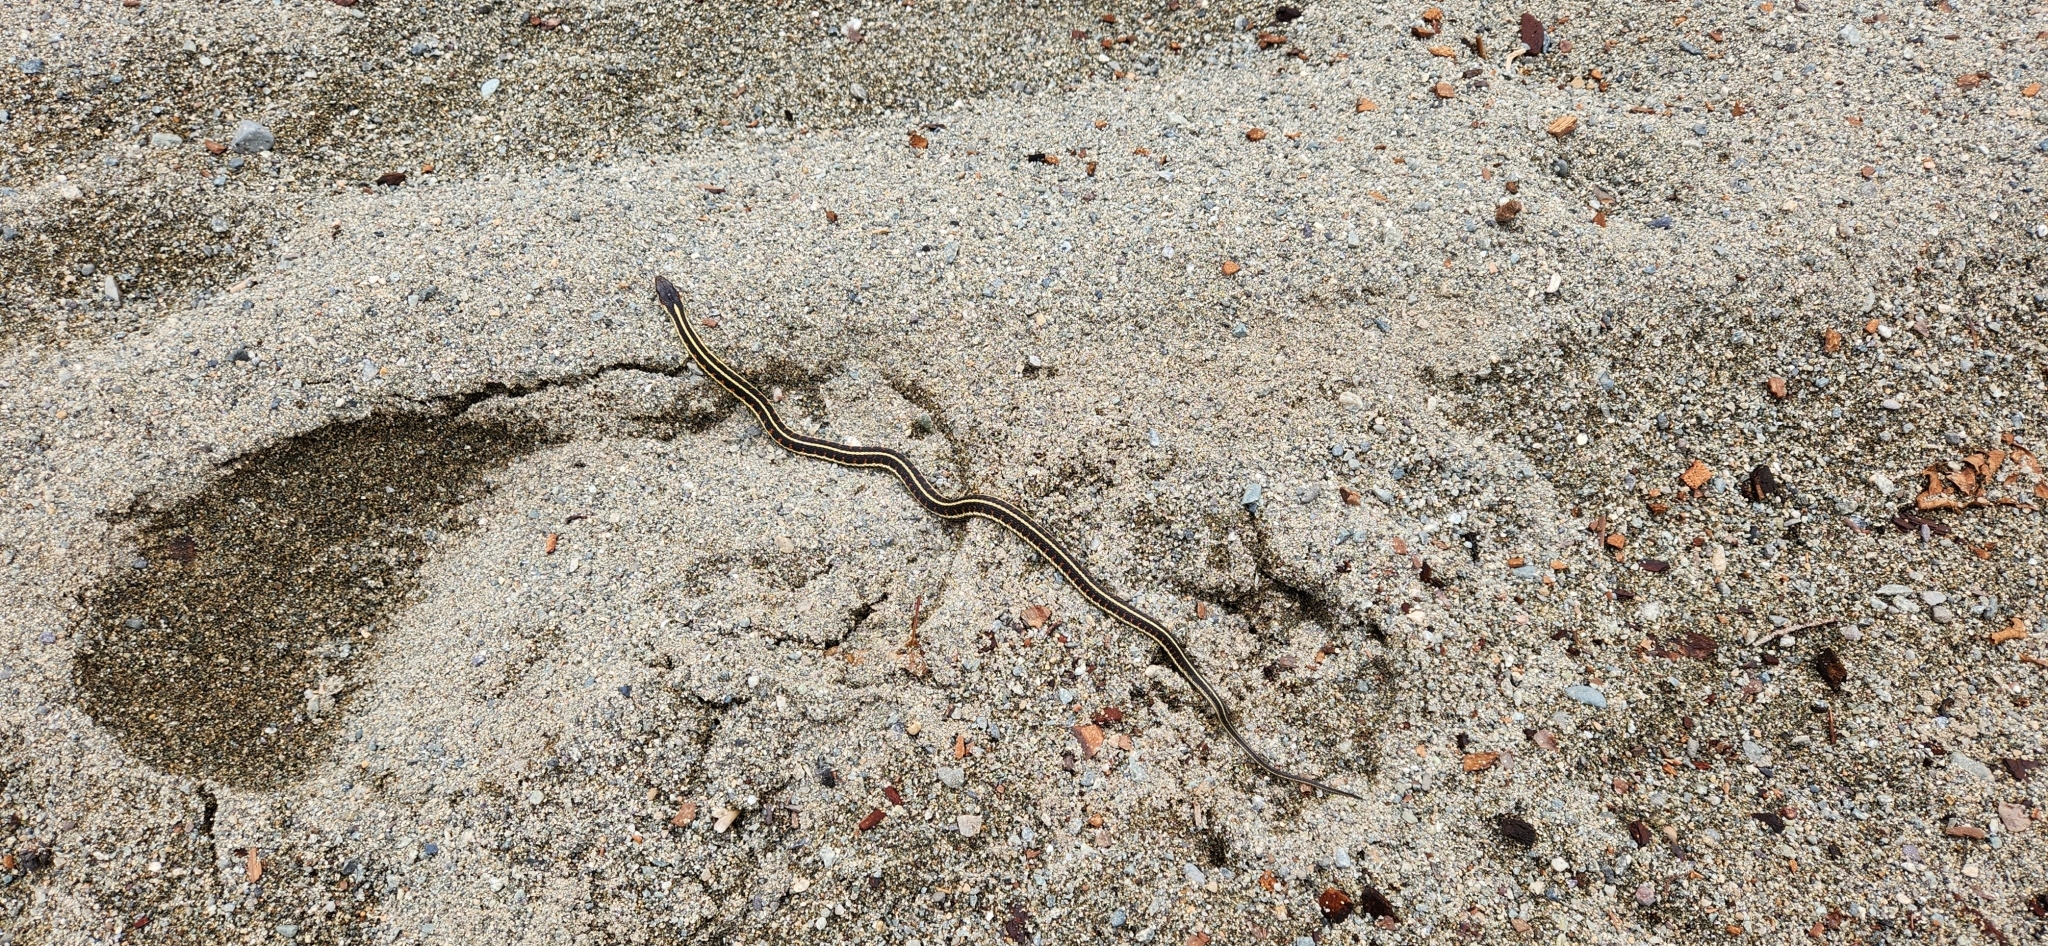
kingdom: Animalia
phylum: Chordata
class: Squamata
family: Colubridae
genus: Thamnophis
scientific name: Thamnophis sirtalis
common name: Common garter snake
